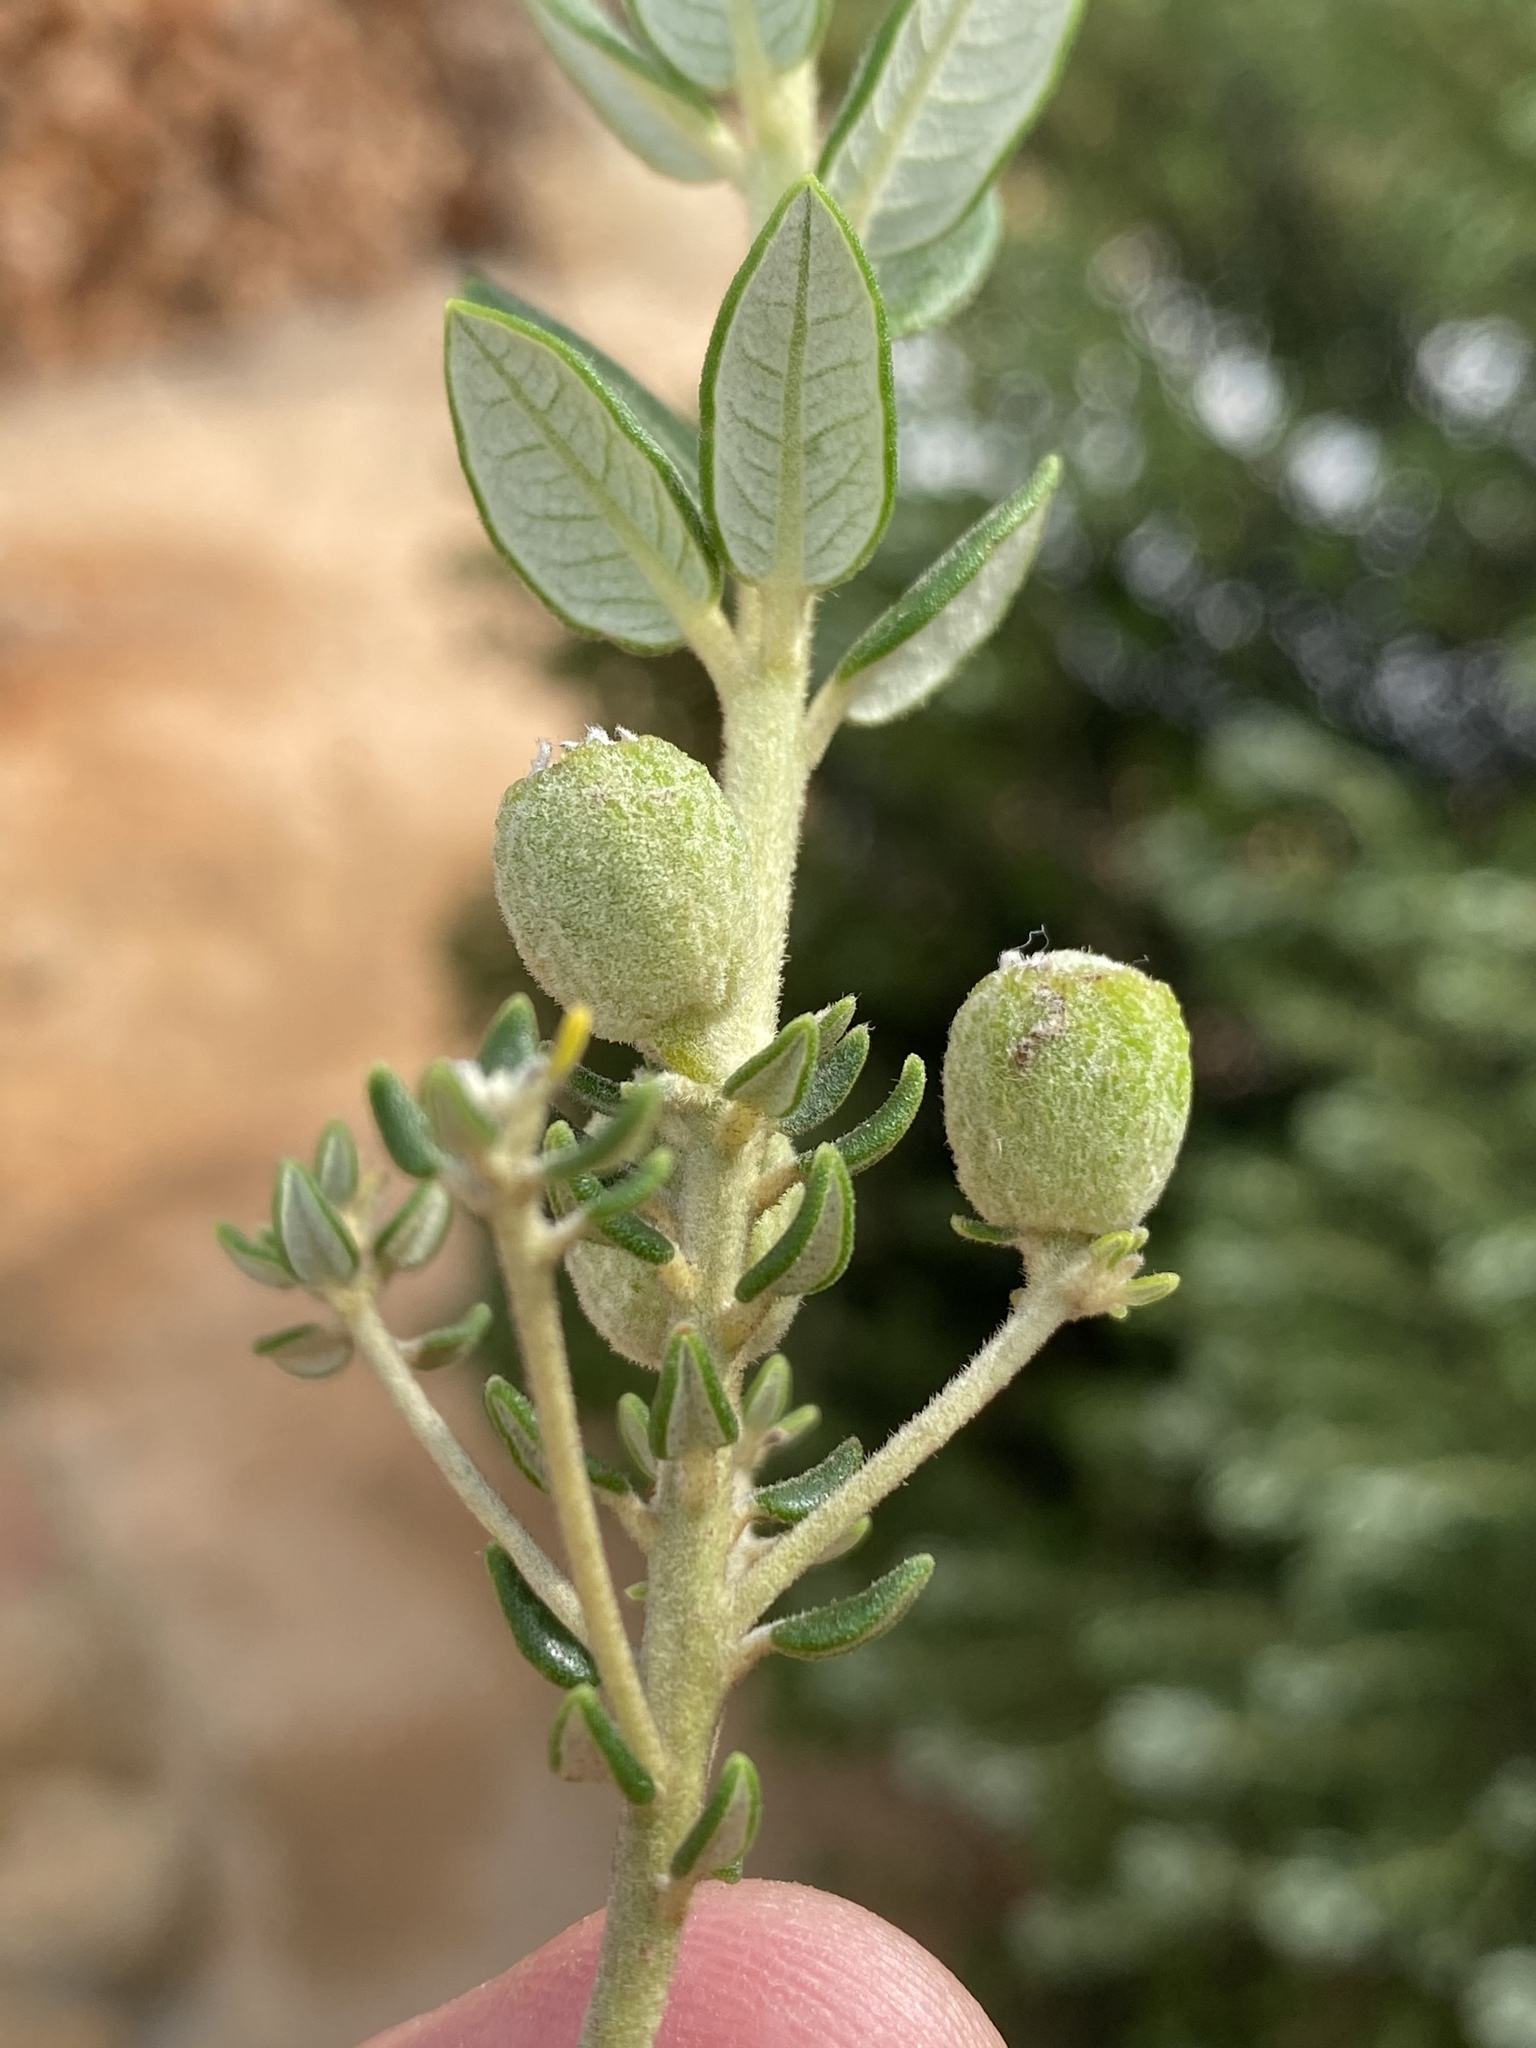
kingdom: Plantae
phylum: Tracheophyta
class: Magnoliopsida
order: Rosales
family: Rhamnaceae
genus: Phylica
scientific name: Phylica buxifolia
